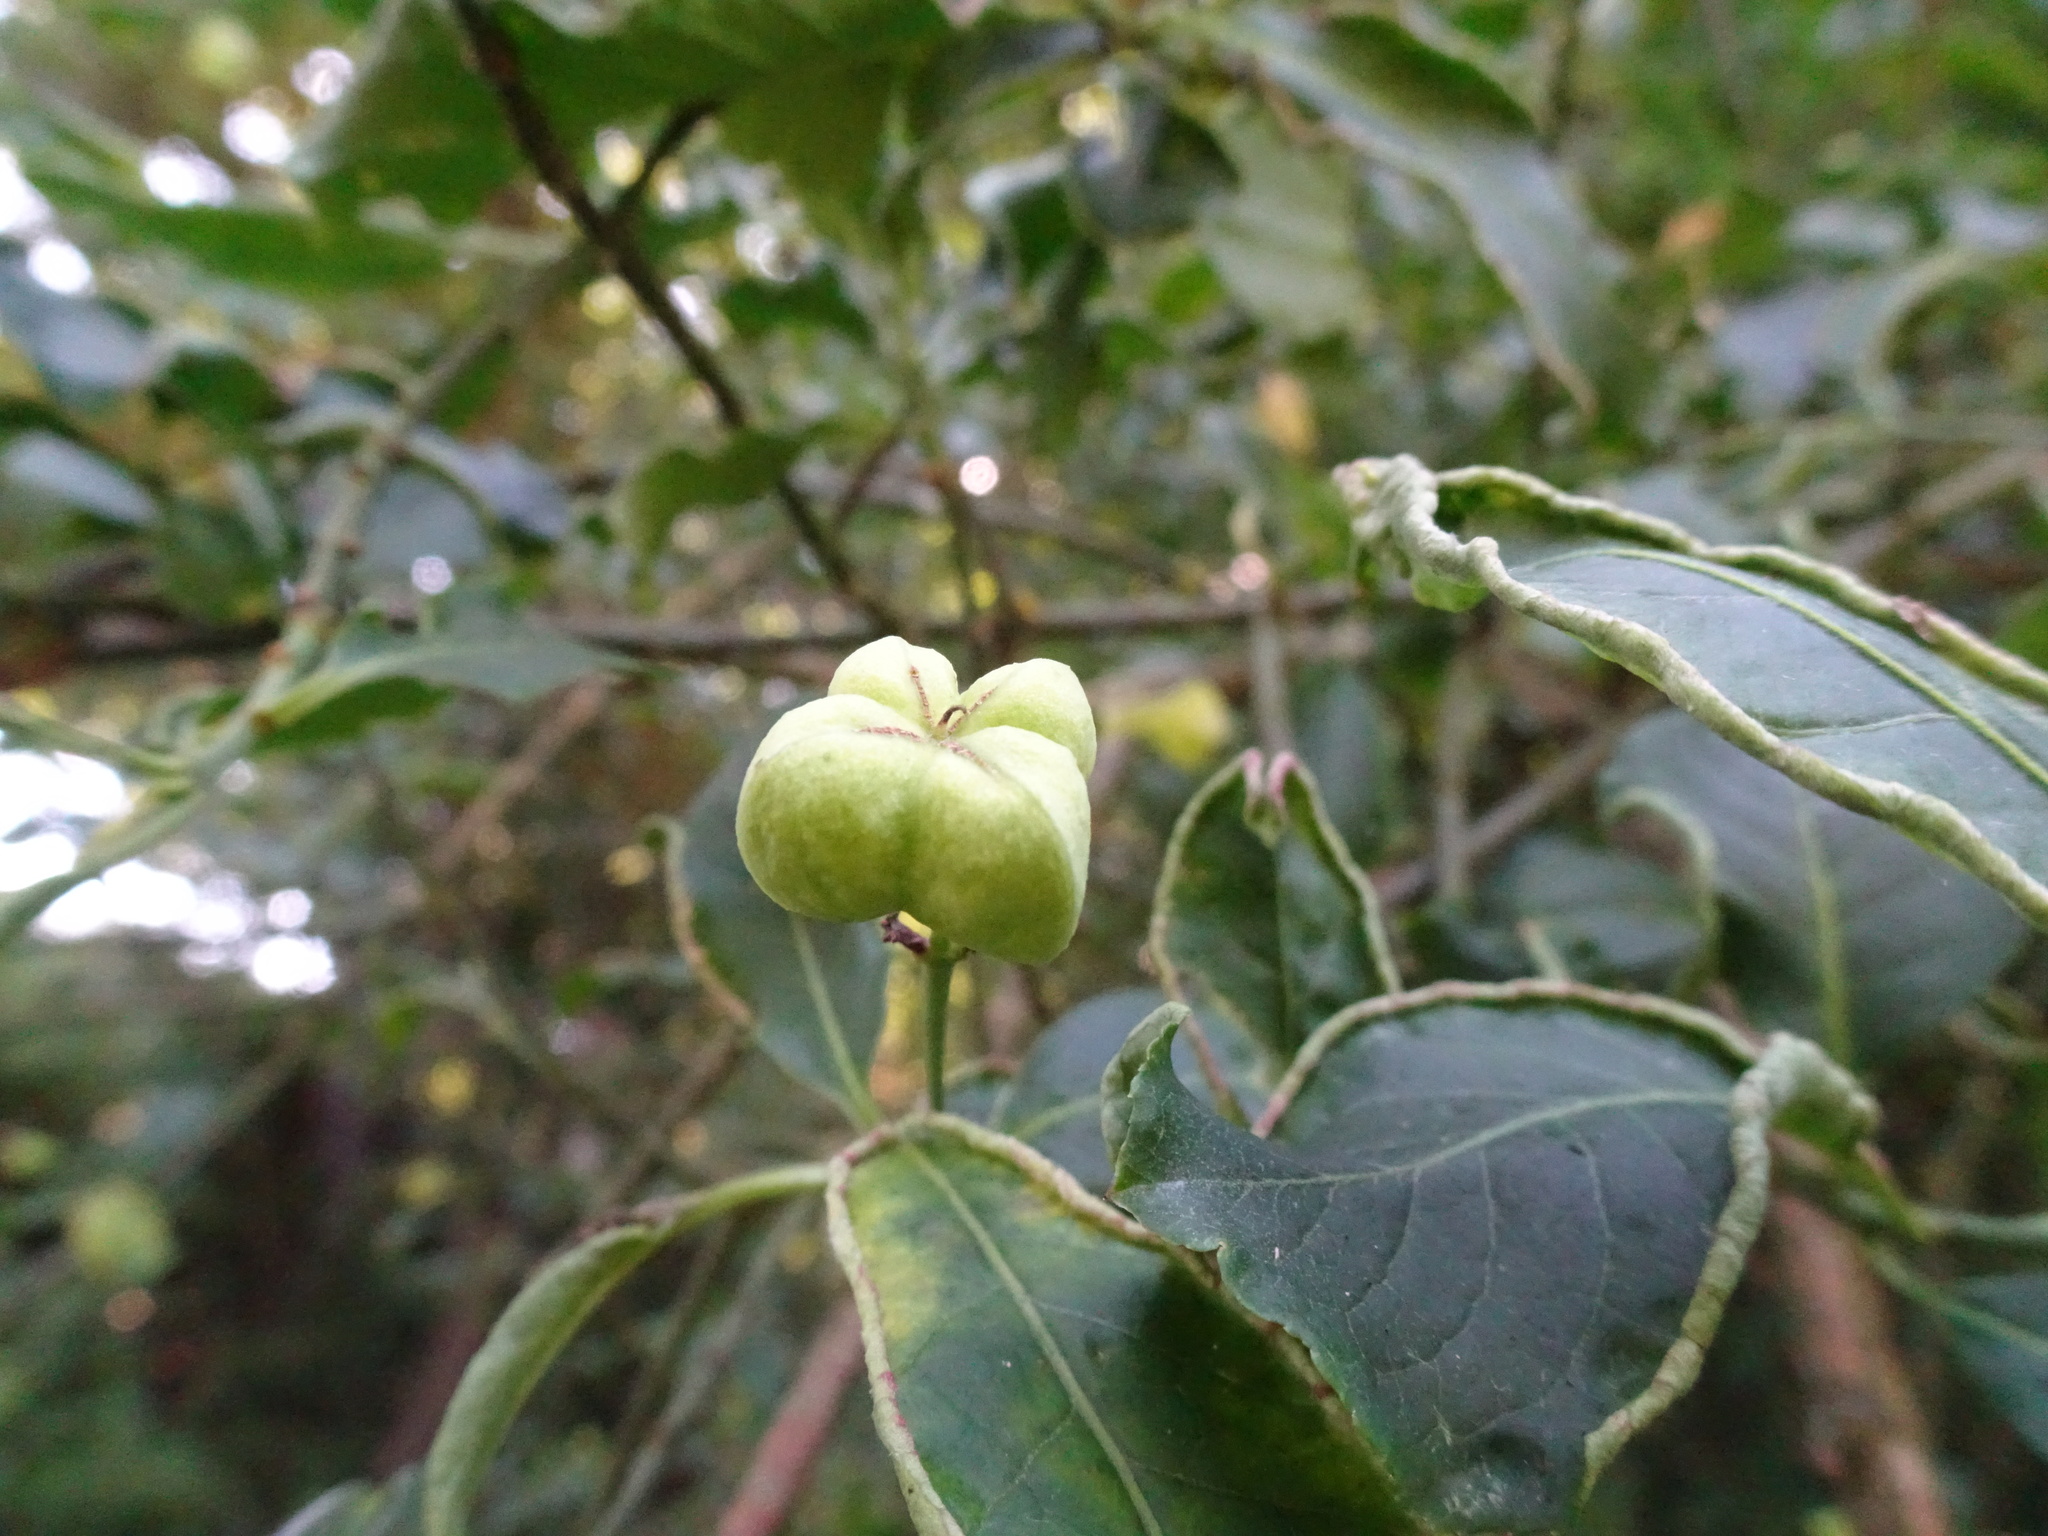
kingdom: Plantae
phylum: Tracheophyta
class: Magnoliopsida
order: Celastrales
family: Celastraceae
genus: Euonymus
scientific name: Euonymus europaeus
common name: Spindle
